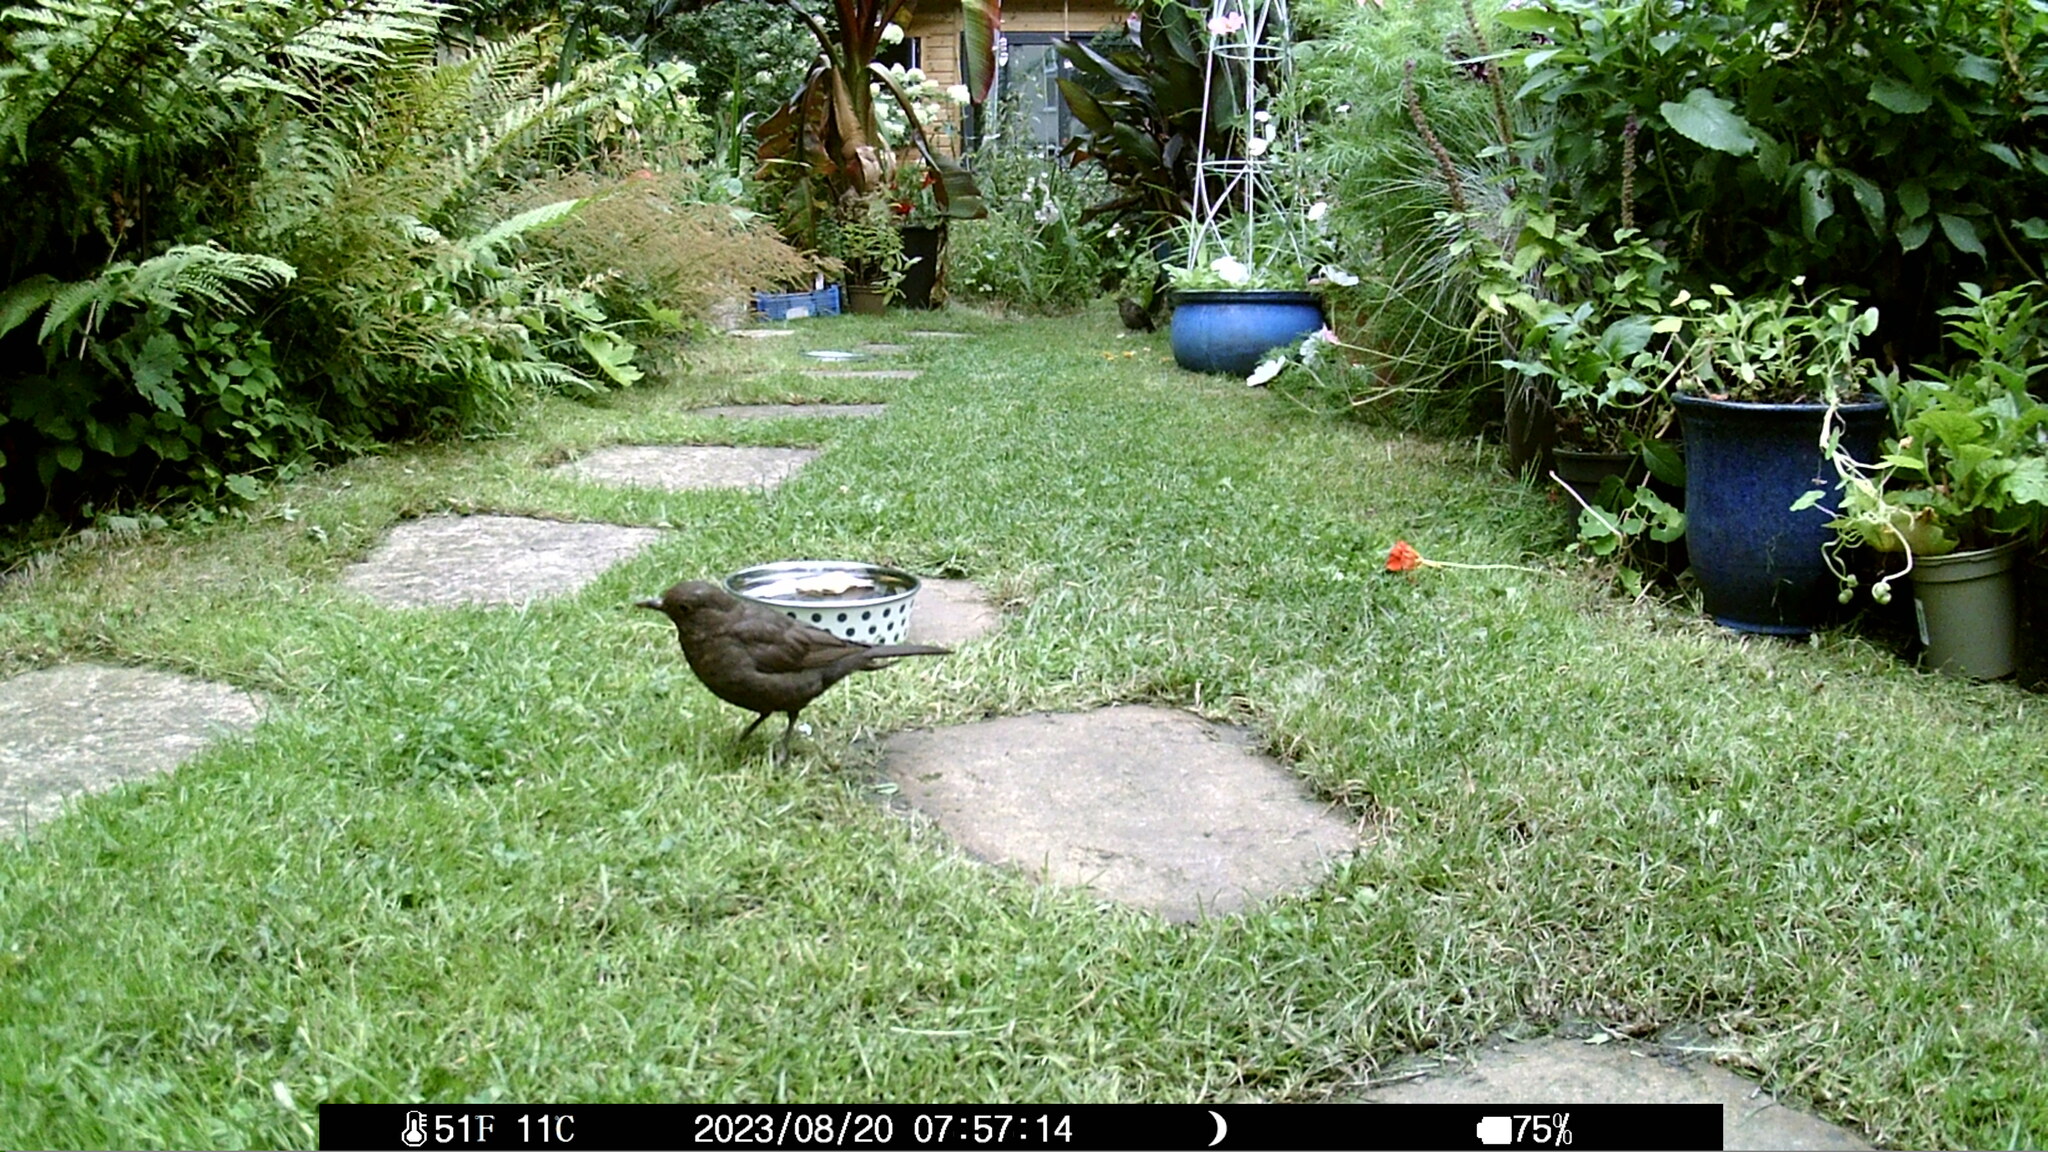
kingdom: Animalia
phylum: Chordata
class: Aves
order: Passeriformes
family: Turdidae
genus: Turdus
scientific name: Turdus merula
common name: Common blackbird
